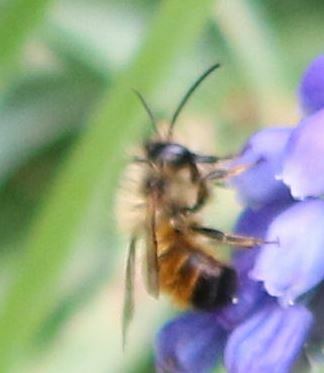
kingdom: Animalia
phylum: Arthropoda
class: Insecta
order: Hymenoptera
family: Megachilidae
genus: Osmia
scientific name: Osmia bicornis
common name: Red mason bee
